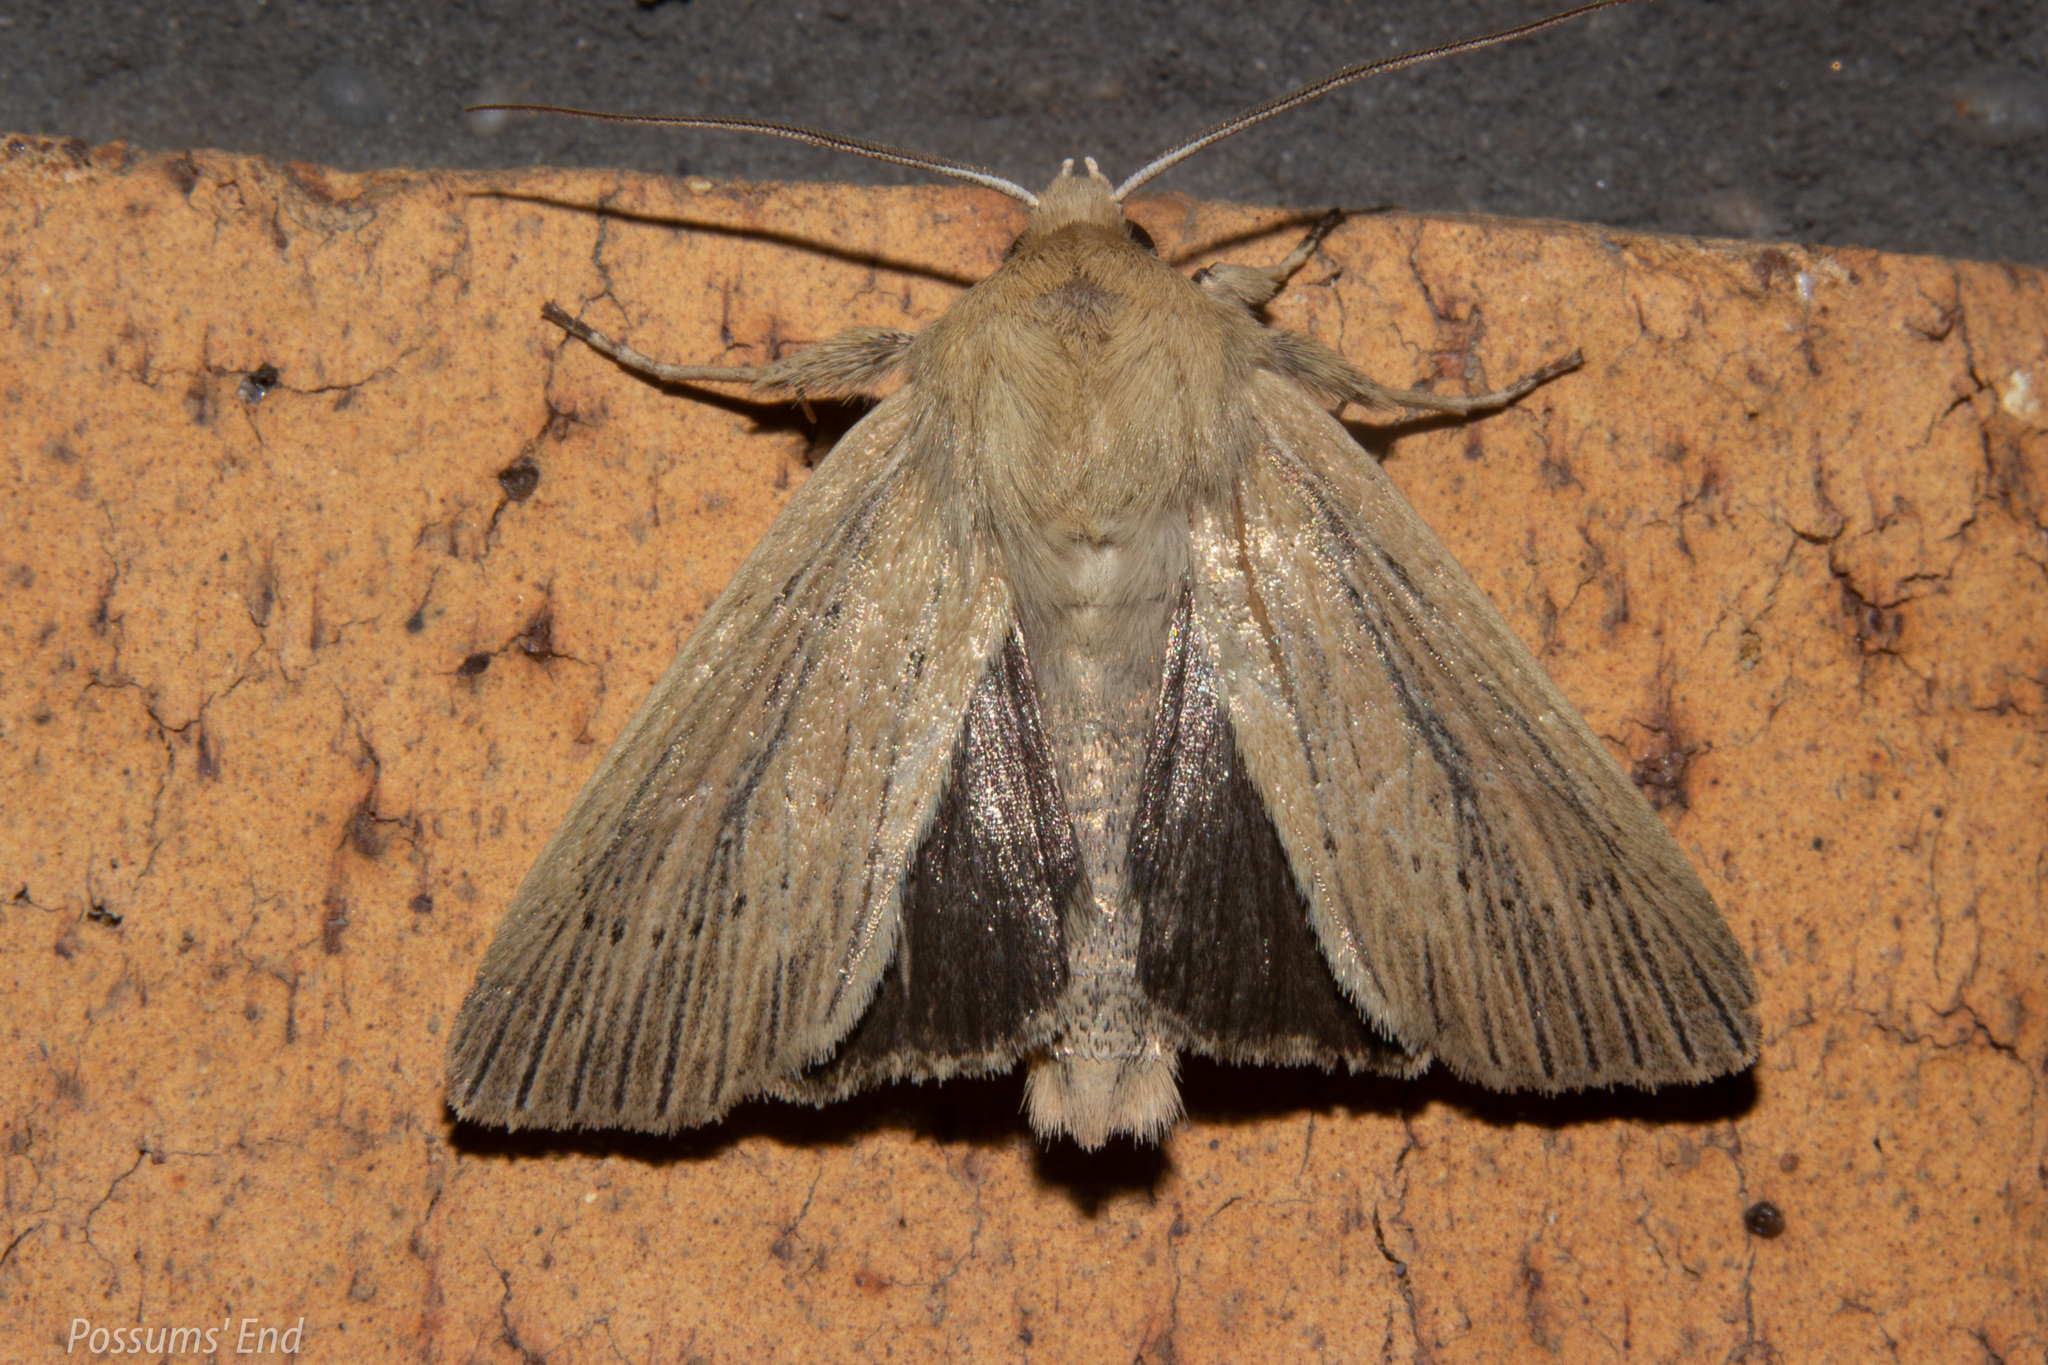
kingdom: Animalia
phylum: Arthropoda
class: Insecta
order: Lepidoptera
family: Noctuidae
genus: Ichneutica
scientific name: Ichneutica arotis
